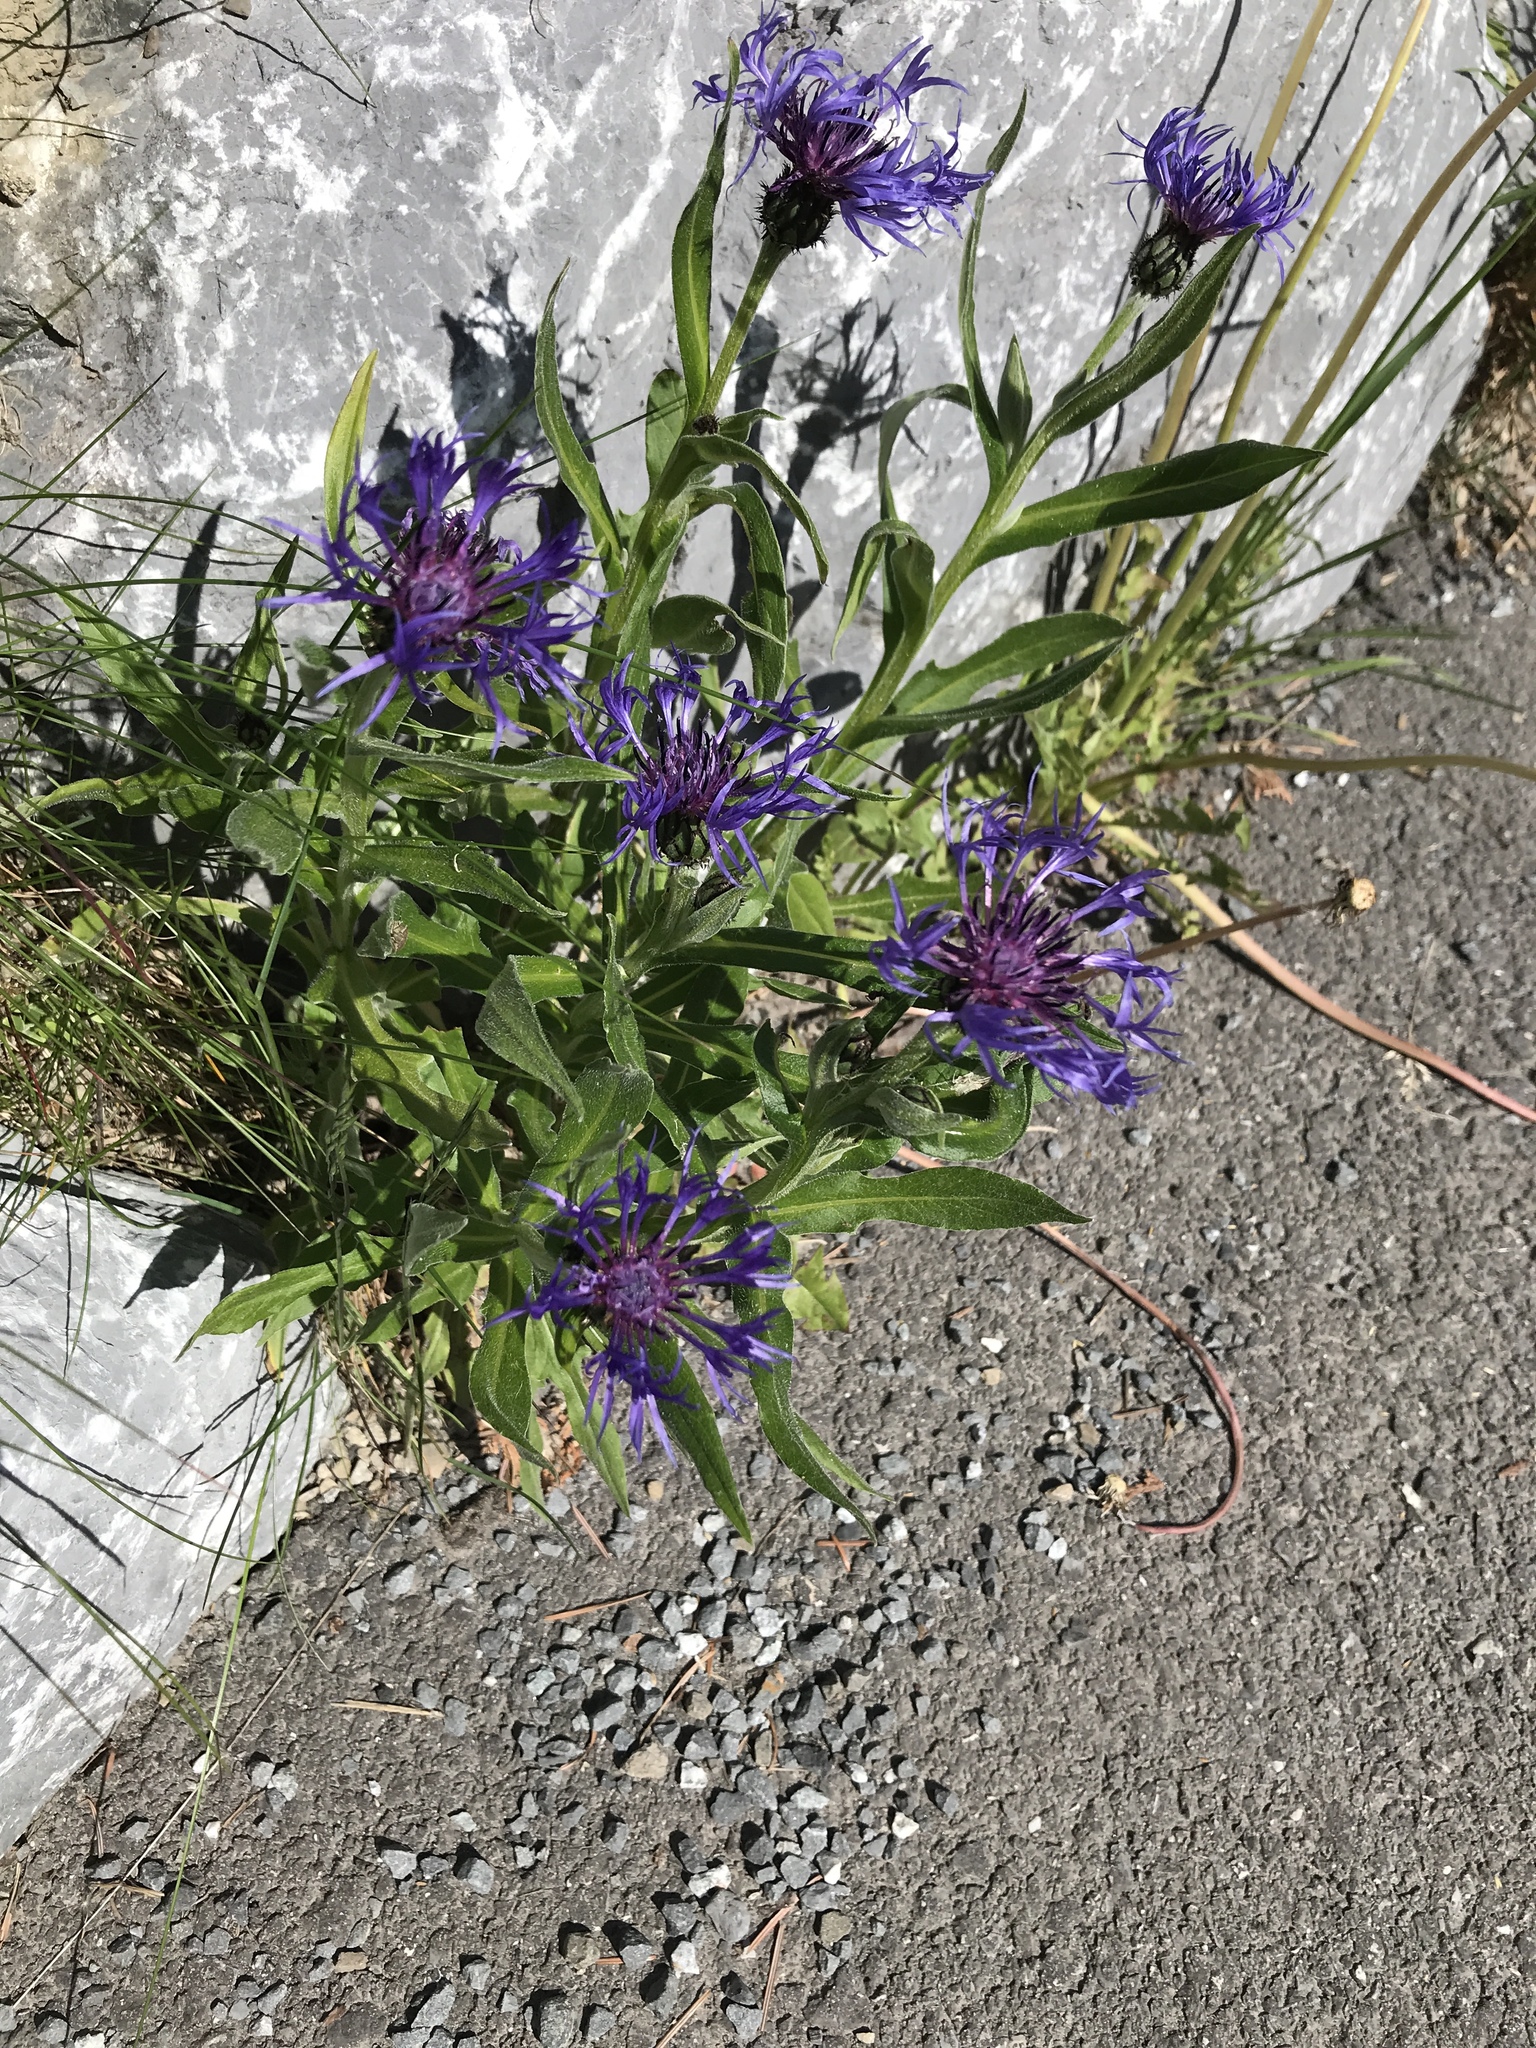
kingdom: Plantae
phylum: Tracheophyta
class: Magnoliopsida
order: Asterales
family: Asteraceae
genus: Centaurea
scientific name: Centaurea montana
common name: Perennial cornflower
